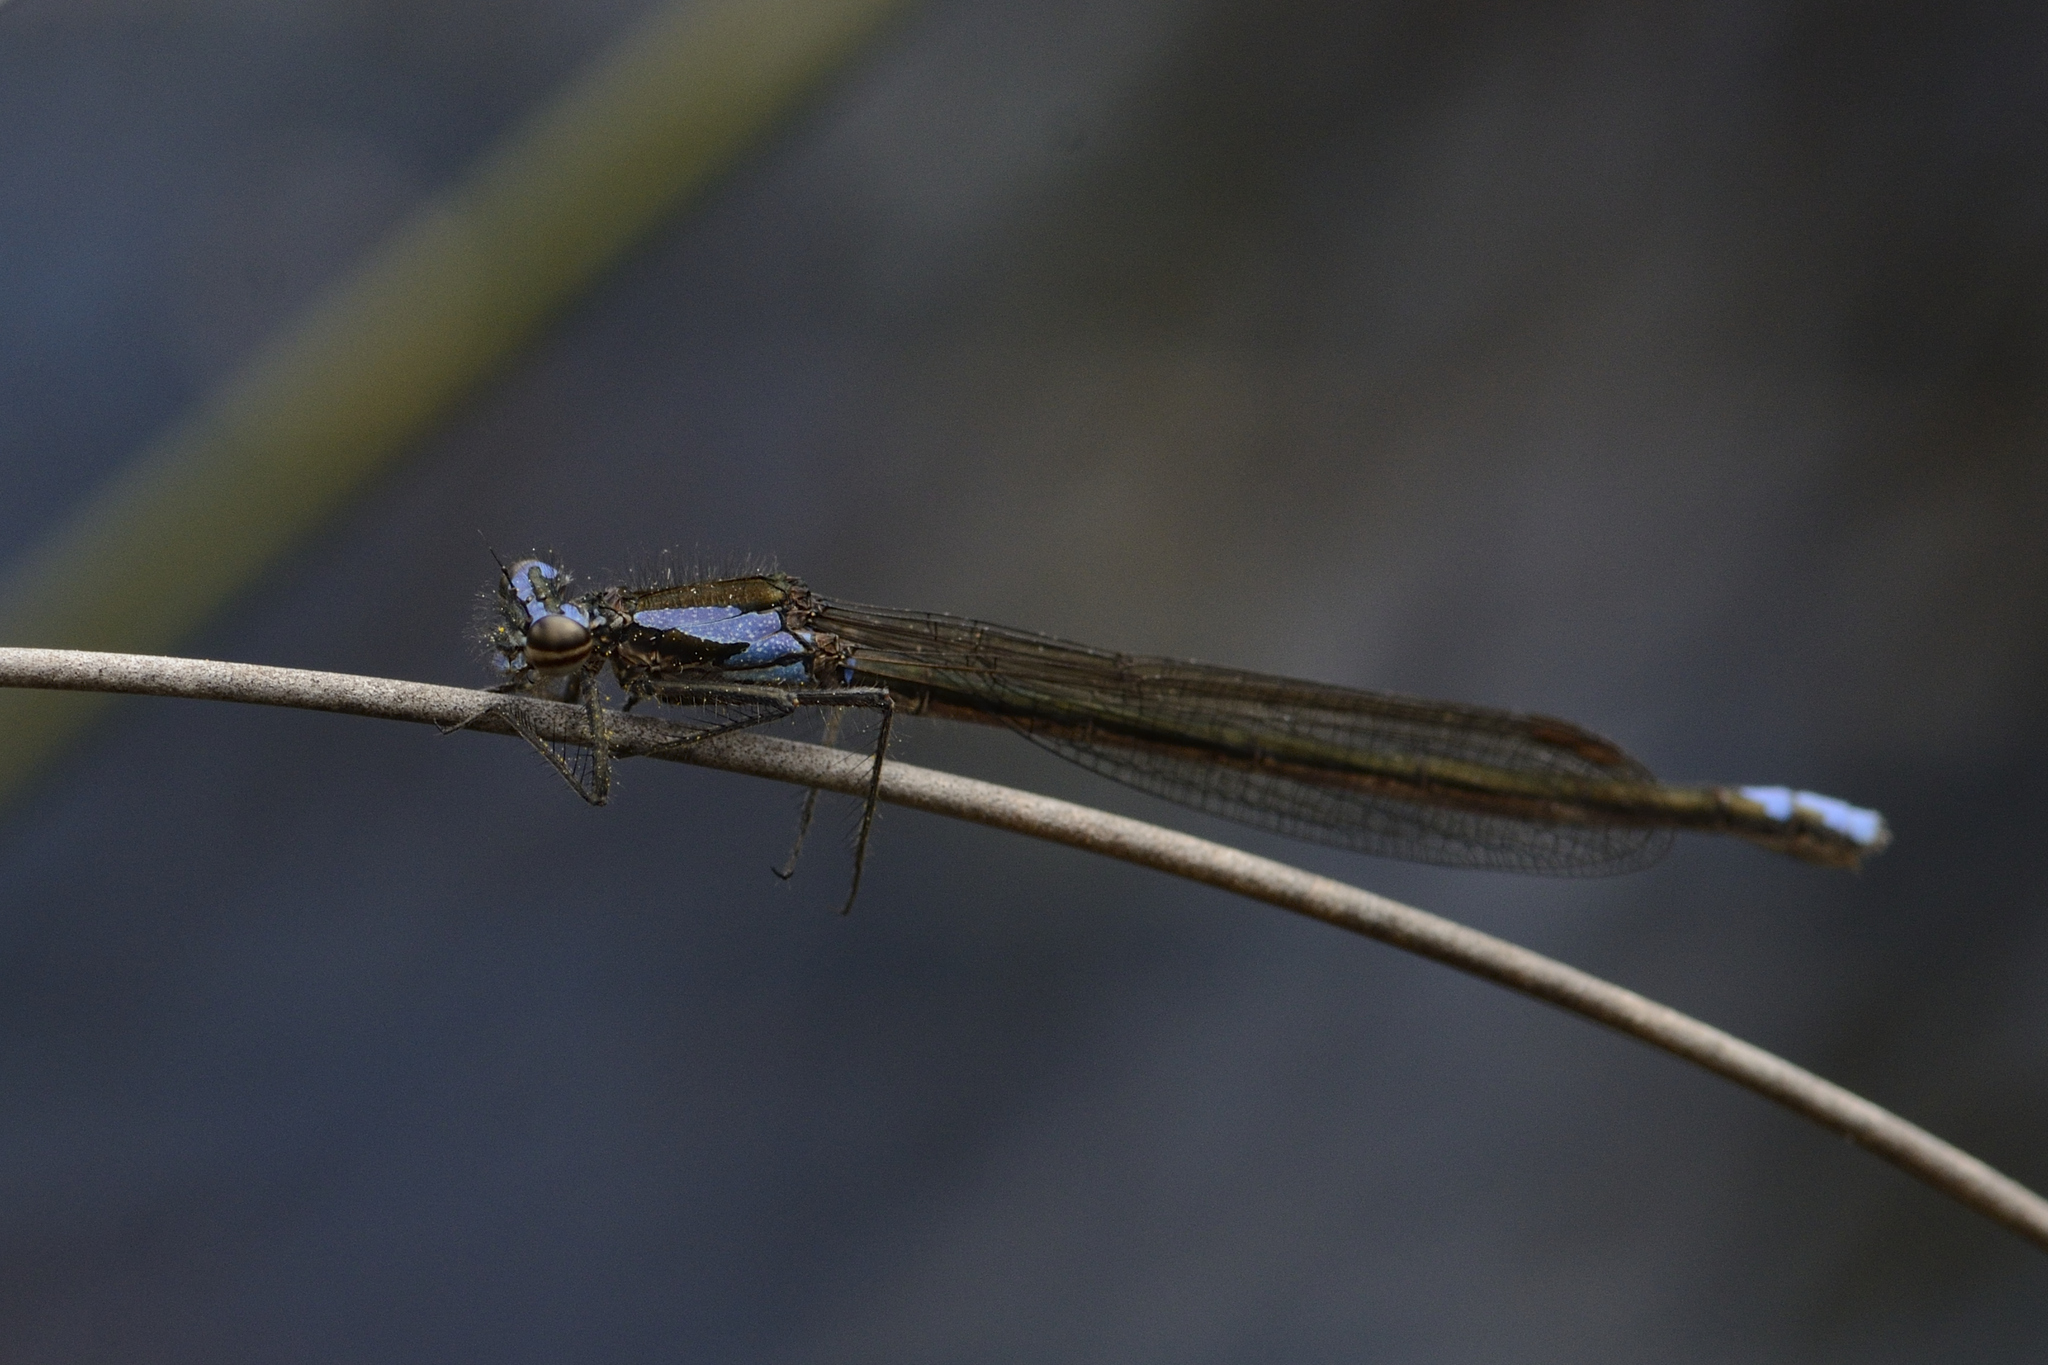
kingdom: Animalia
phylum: Arthropoda
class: Insecta
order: Odonata
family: Platycnemididae
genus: Spesbona
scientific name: Spesbona angusta
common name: Ceres featherlegs
